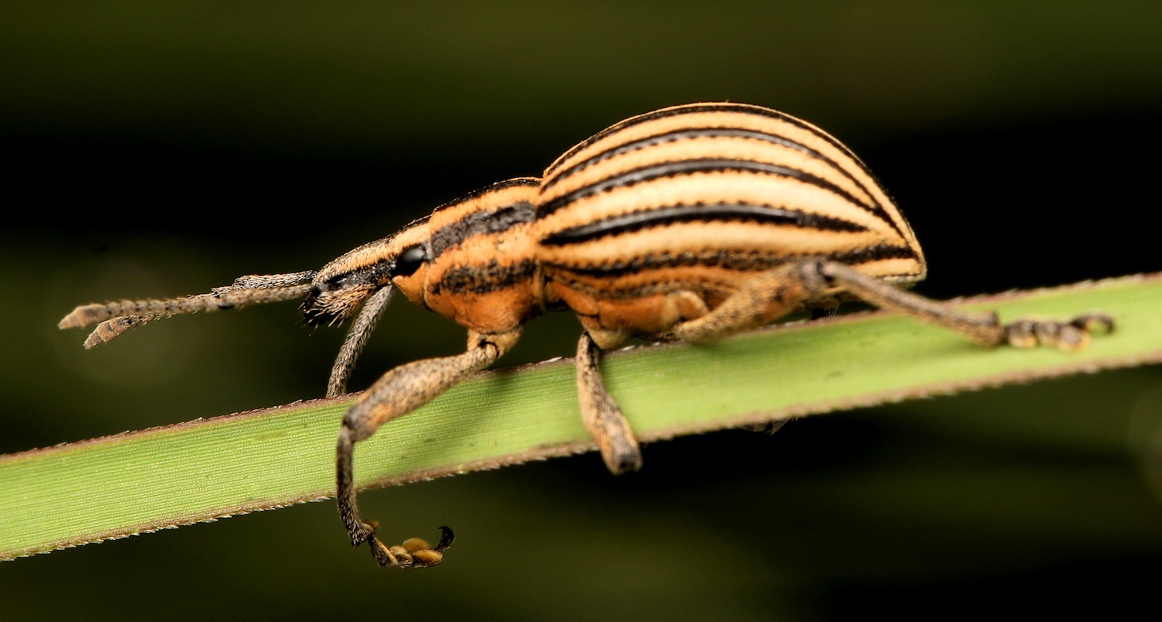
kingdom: Animalia
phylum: Arthropoda
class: Insecta
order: Coleoptera
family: Curculionidae
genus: Eremnus
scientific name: Eremnus lineatus
